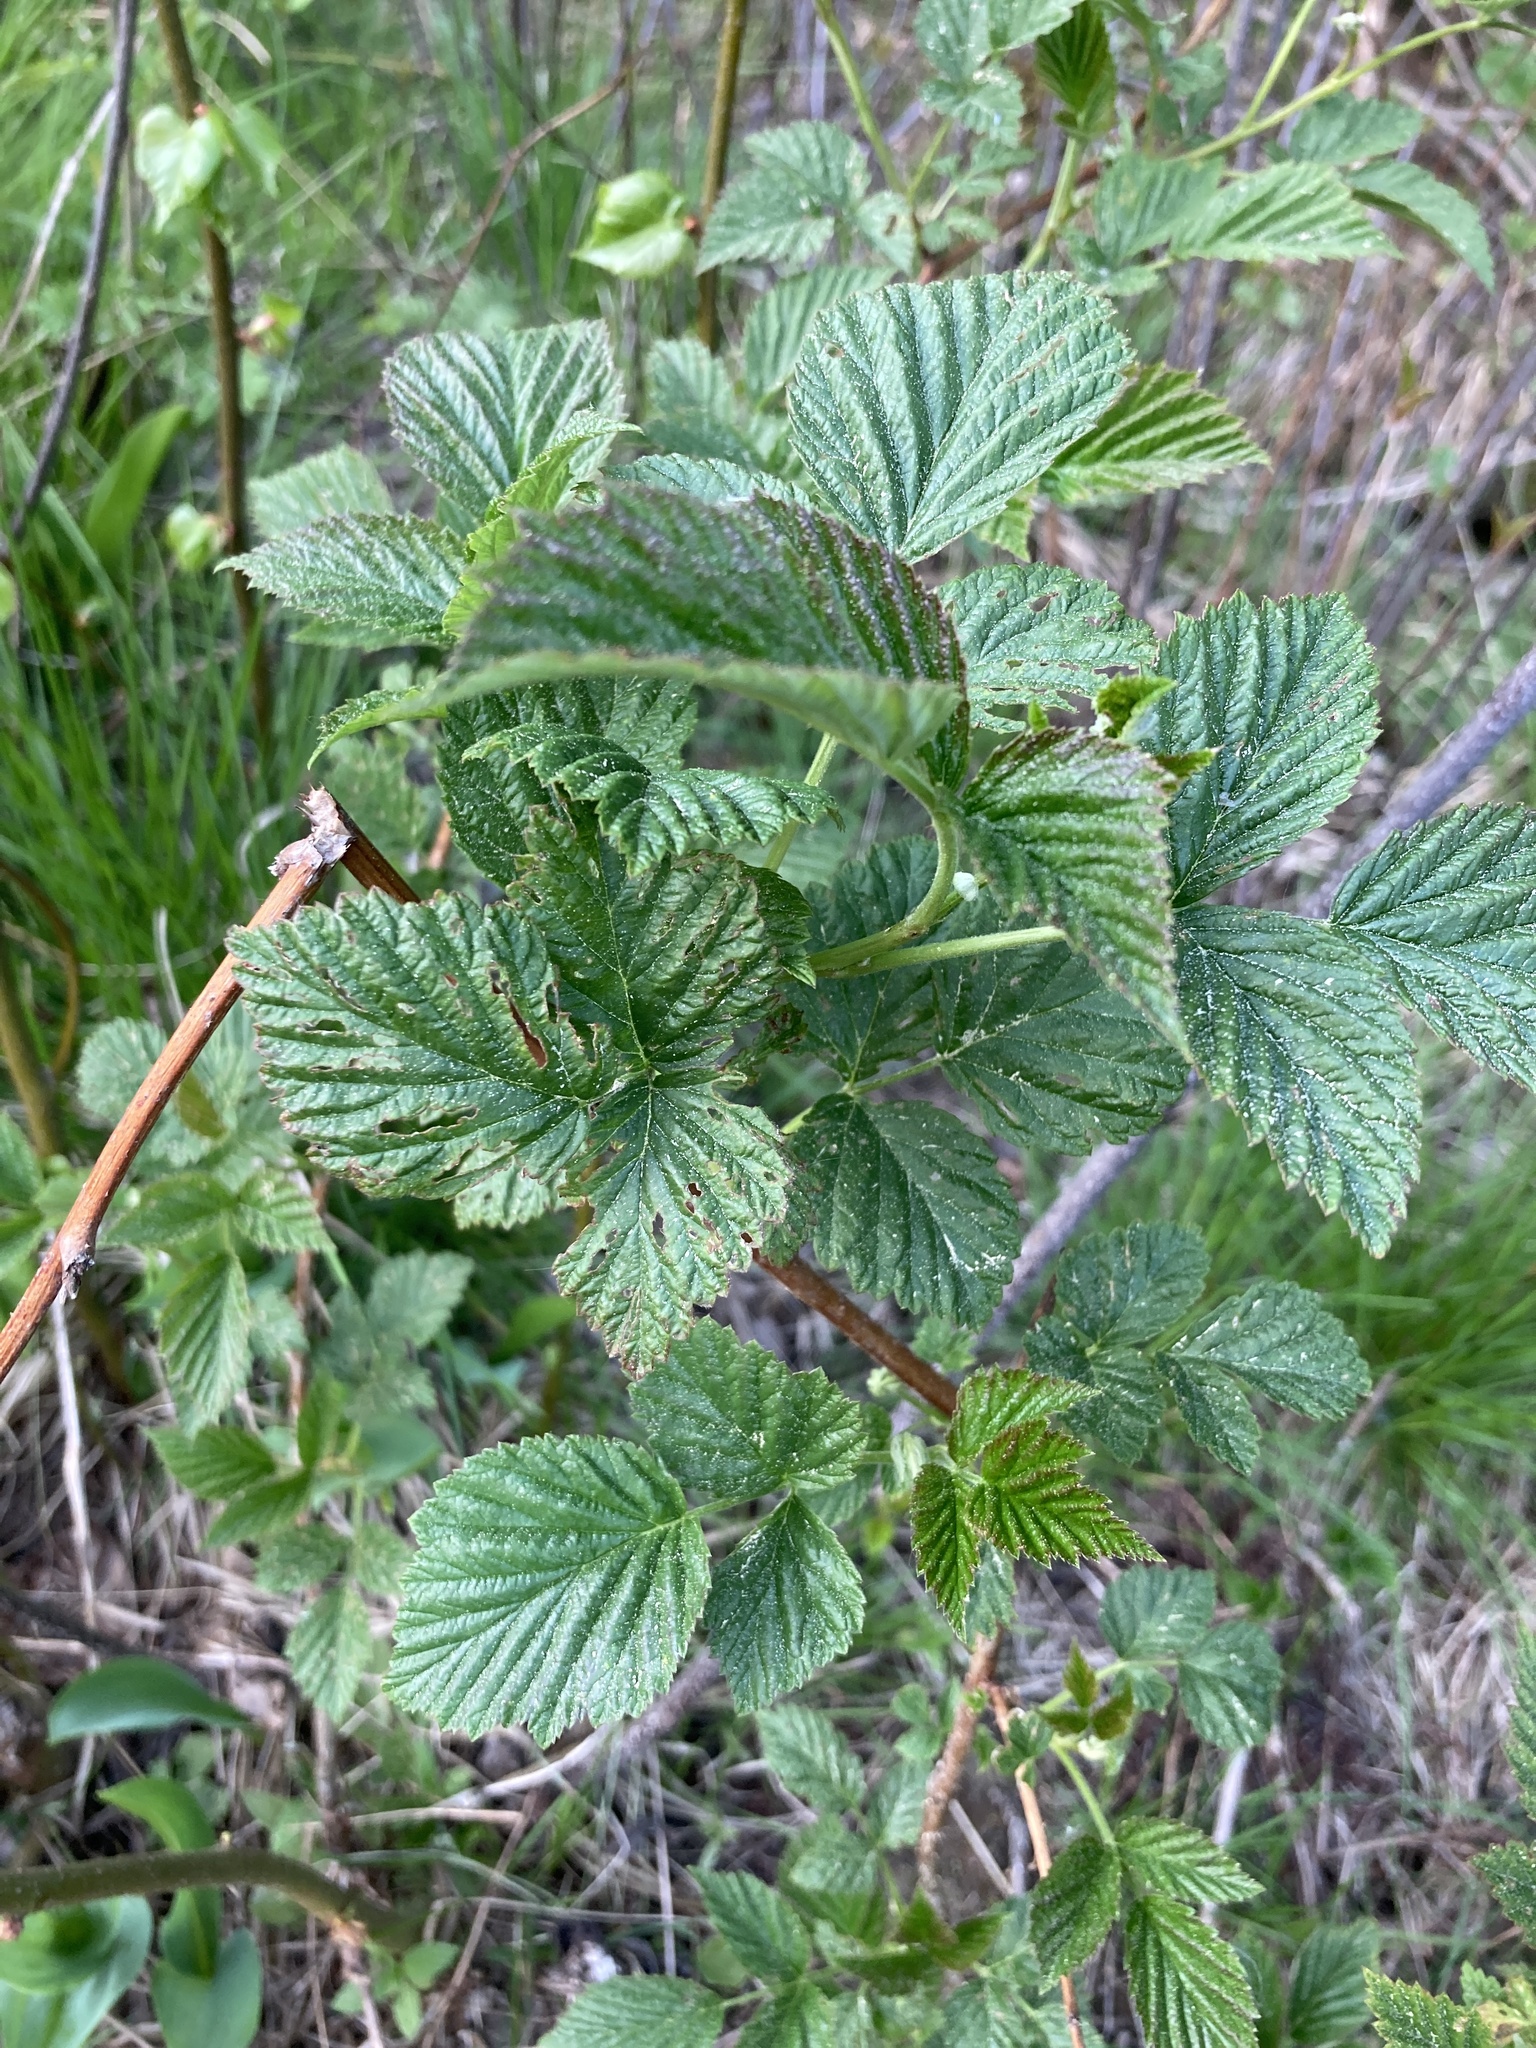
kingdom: Plantae
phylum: Tracheophyta
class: Magnoliopsida
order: Rosales
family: Rosaceae
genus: Rubus
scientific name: Rubus idaeus
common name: Raspberry
